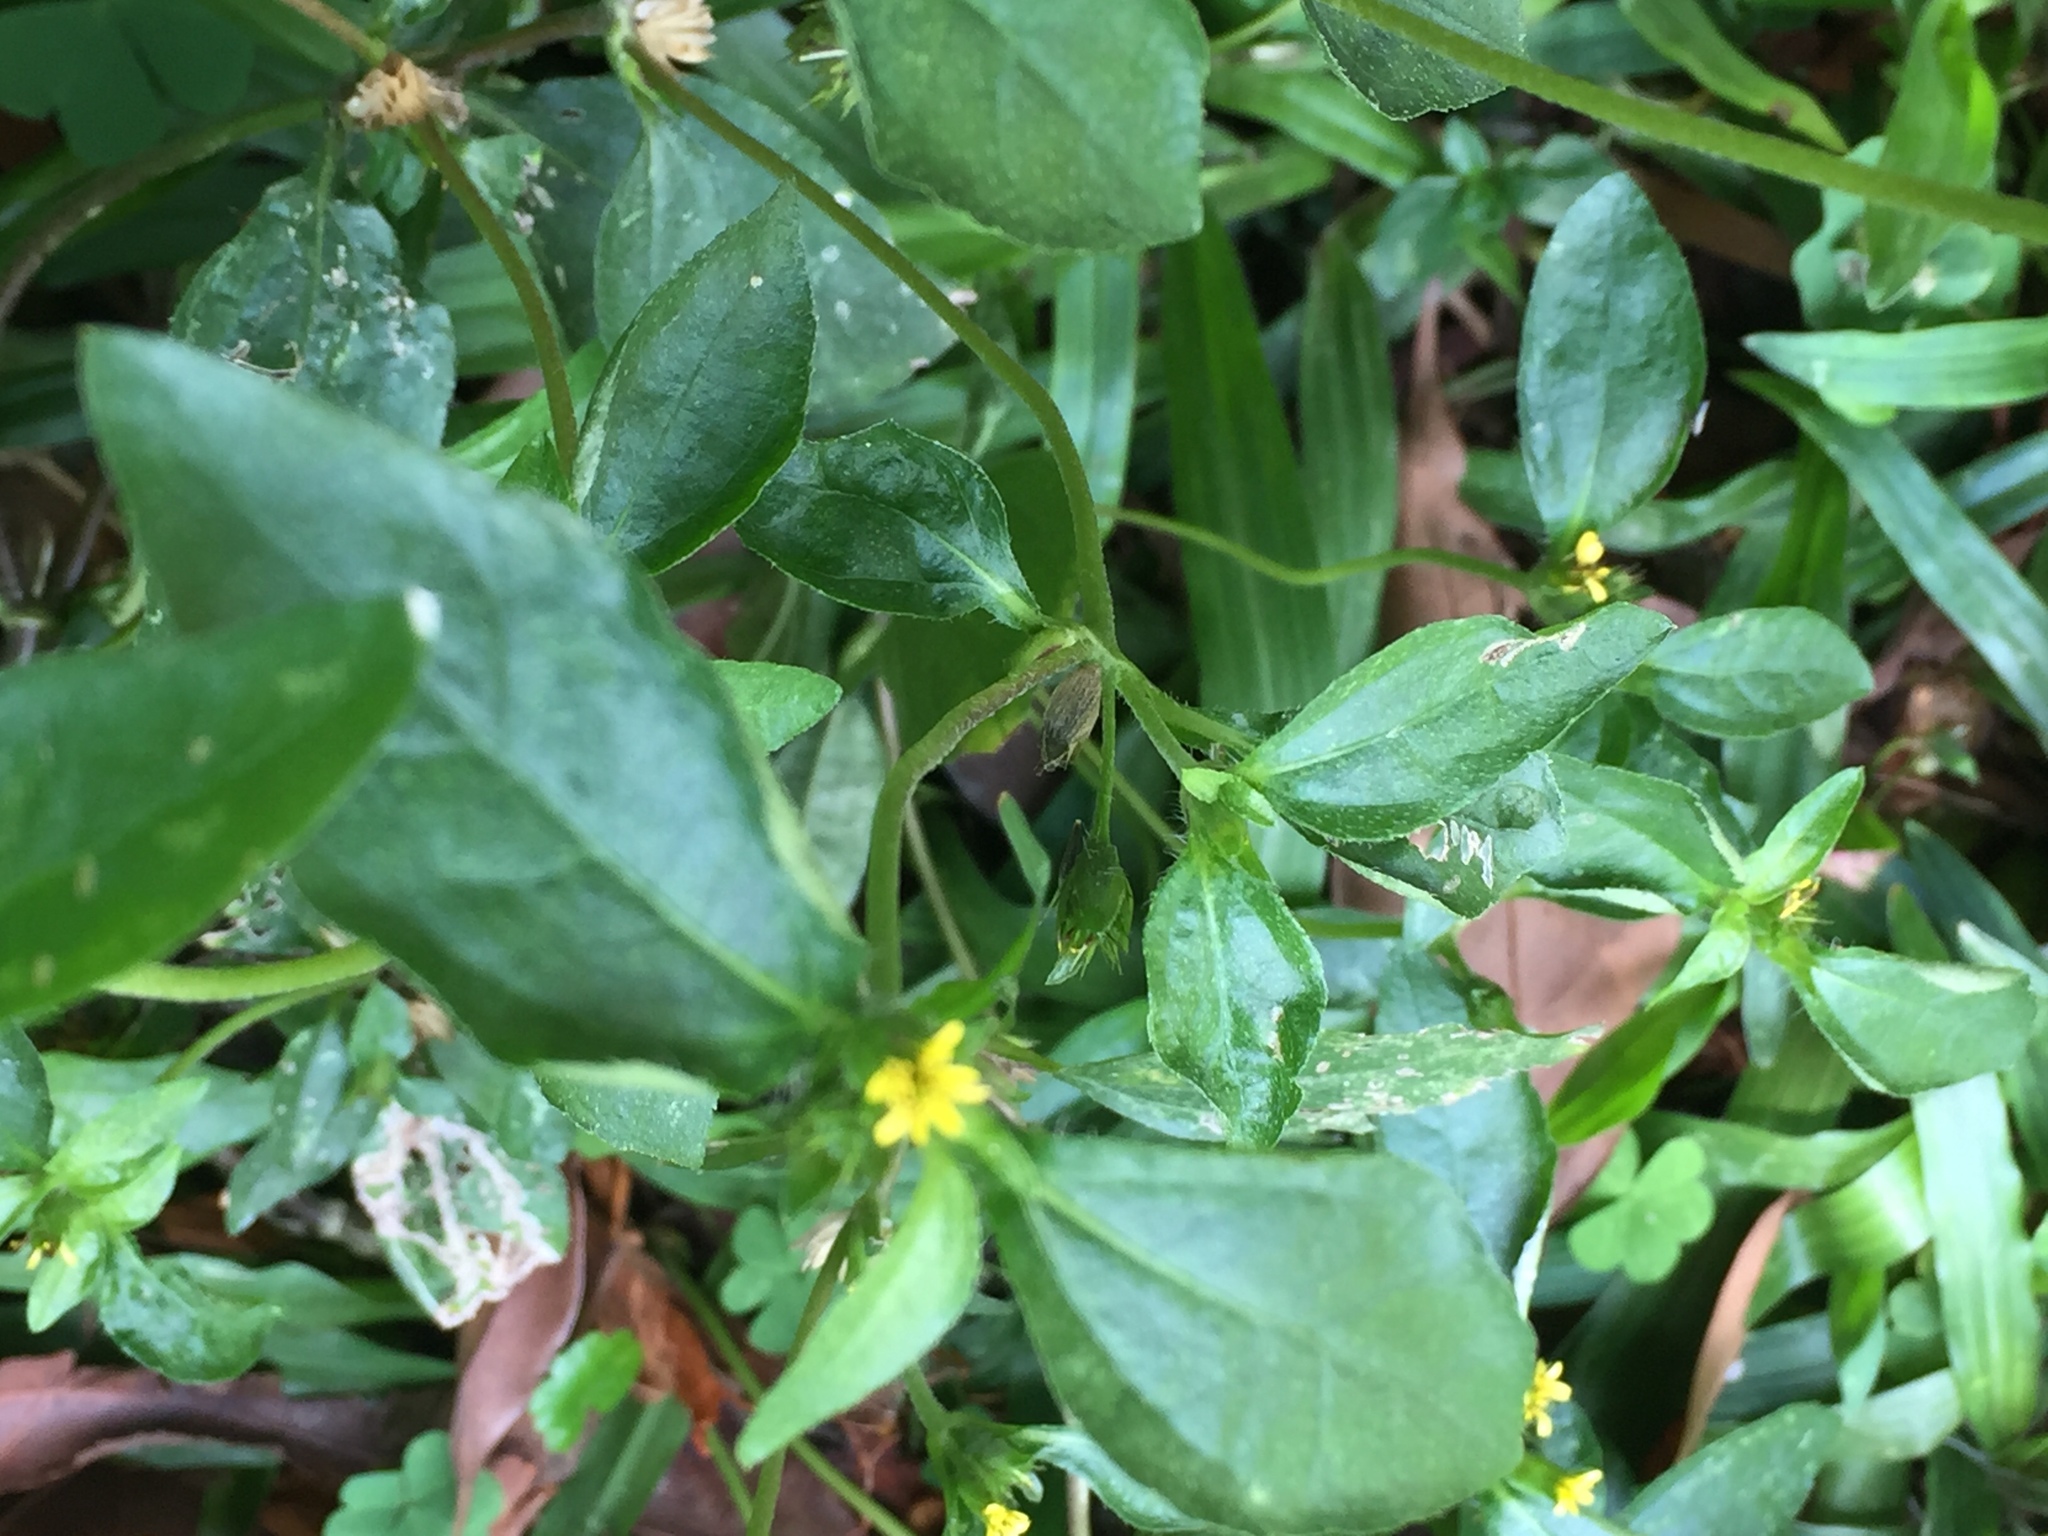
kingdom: Plantae
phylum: Tracheophyta
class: Magnoliopsida
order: Asterales
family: Asteraceae
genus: Synedrella
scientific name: Synedrella nodiflora
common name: Nodeweed
